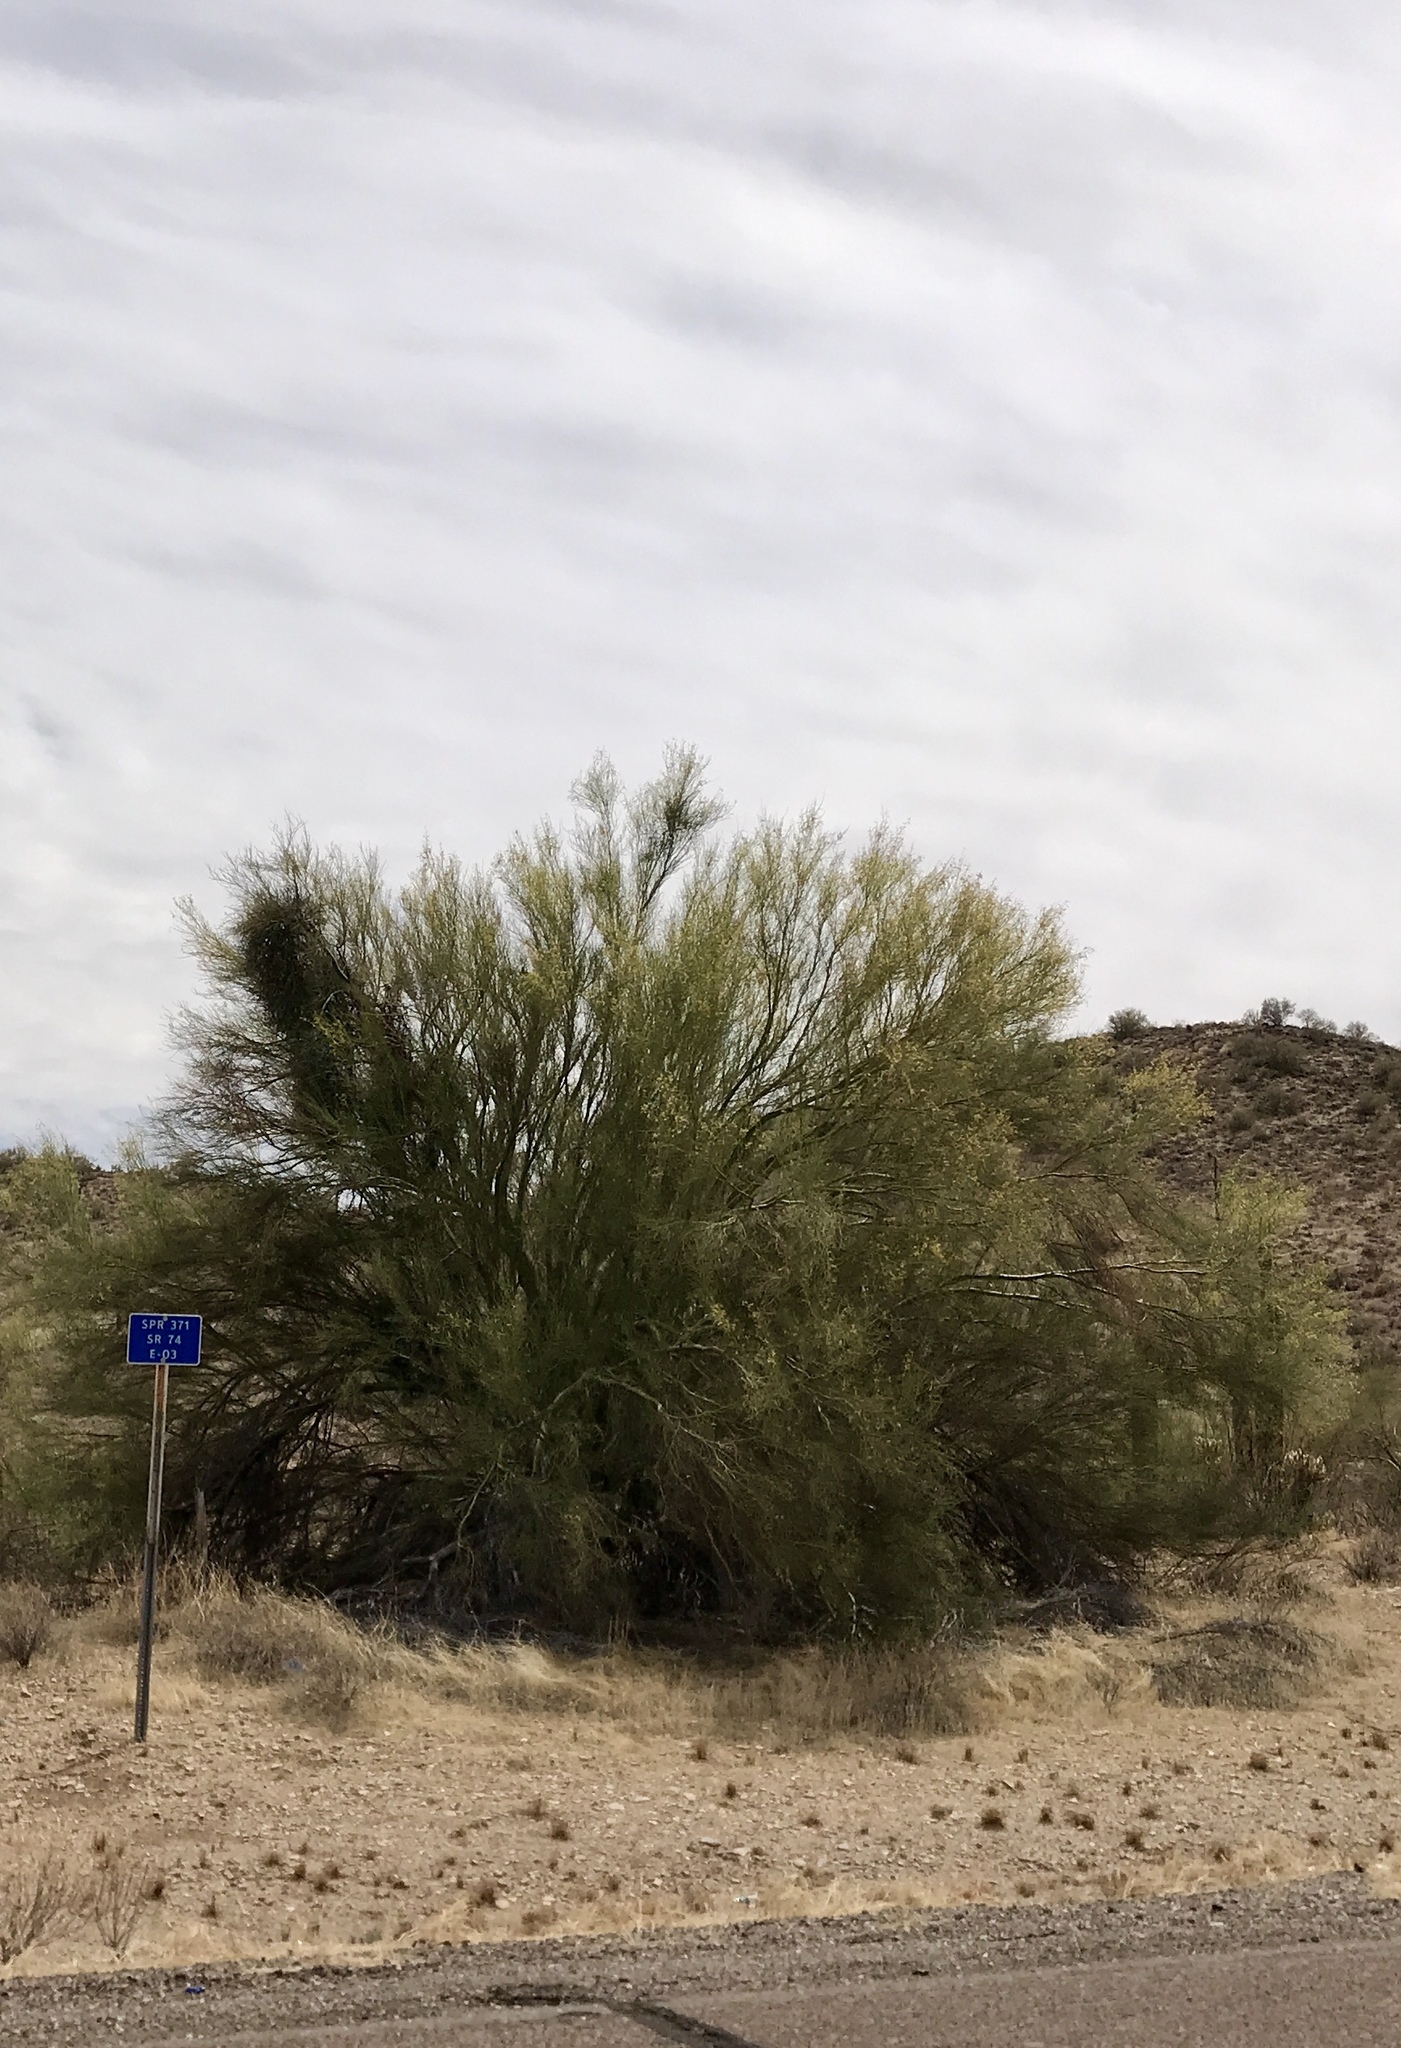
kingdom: Plantae
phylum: Tracheophyta
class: Magnoliopsida
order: Fabales
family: Fabaceae
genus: Parkinsonia
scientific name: Parkinsonia microphylla
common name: Yellow paloverde
